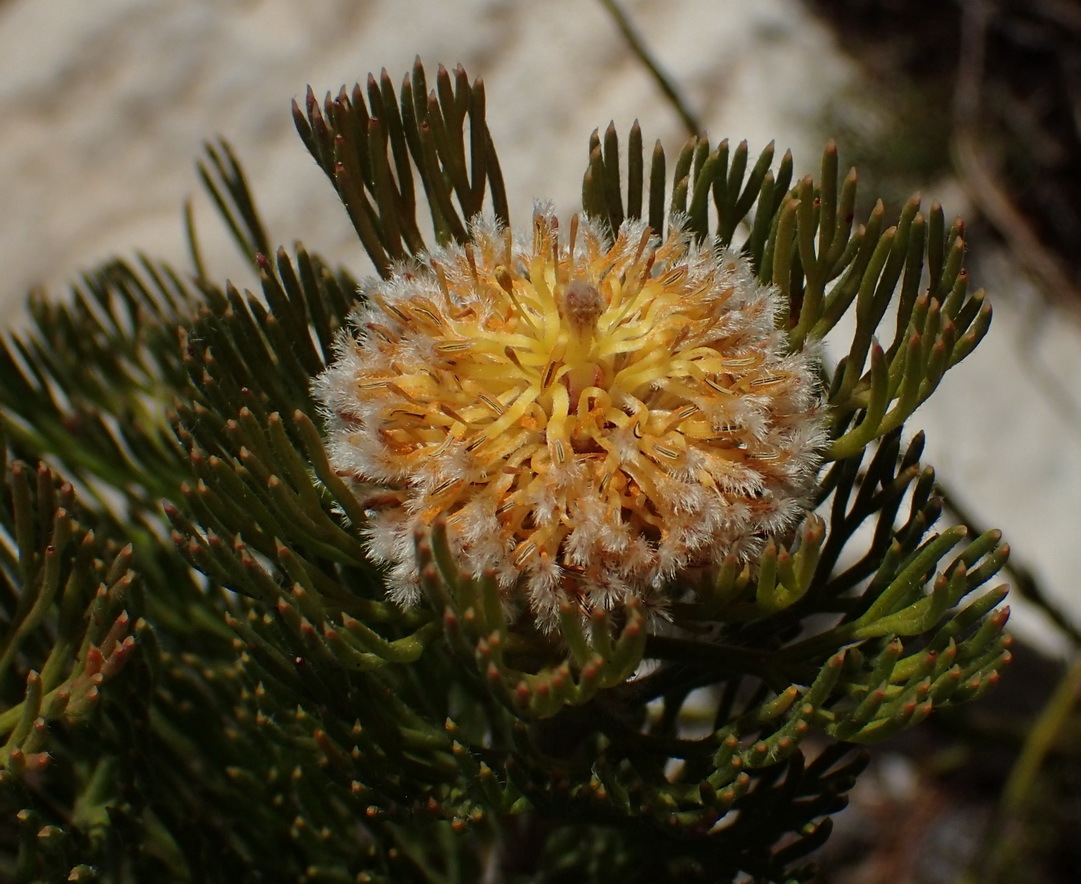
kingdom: Plantae
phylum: Tracheophyta
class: Magnoliopsida
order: Proteales
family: Proteaceae
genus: Serruria
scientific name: Serruria villosa
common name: Golden spiderhead
